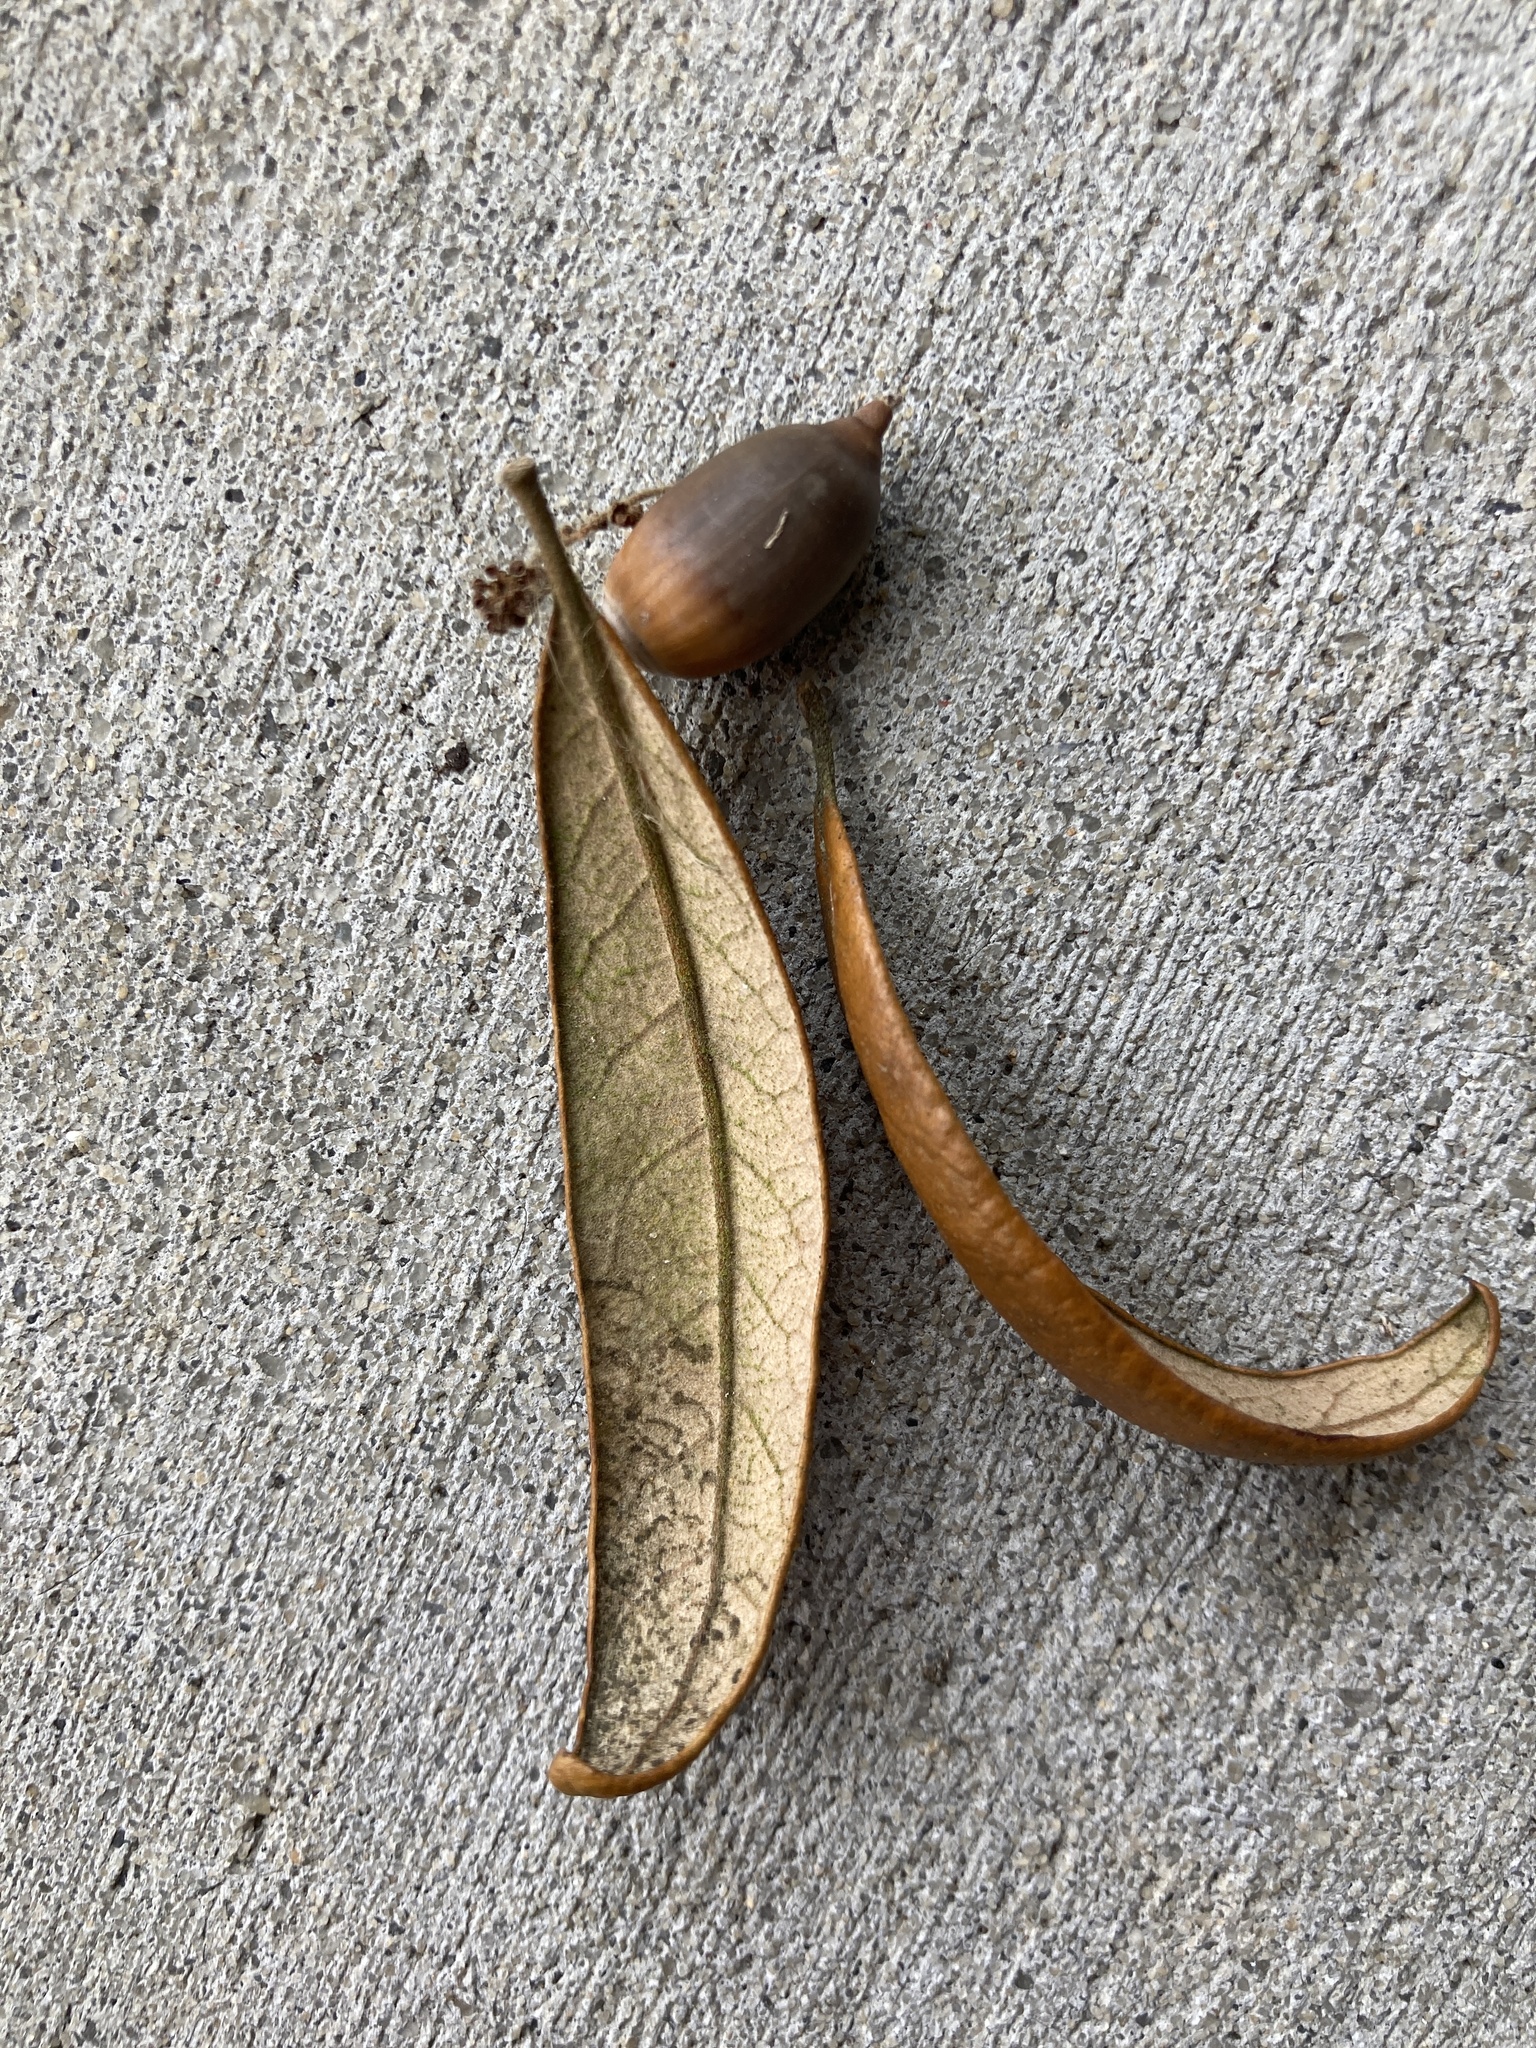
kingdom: Plantae
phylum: Tracheophyta
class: Magnoliopsida
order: Fagales
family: Fagaceae
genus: Quercus
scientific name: Quercus geminata
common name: Sand live oak
